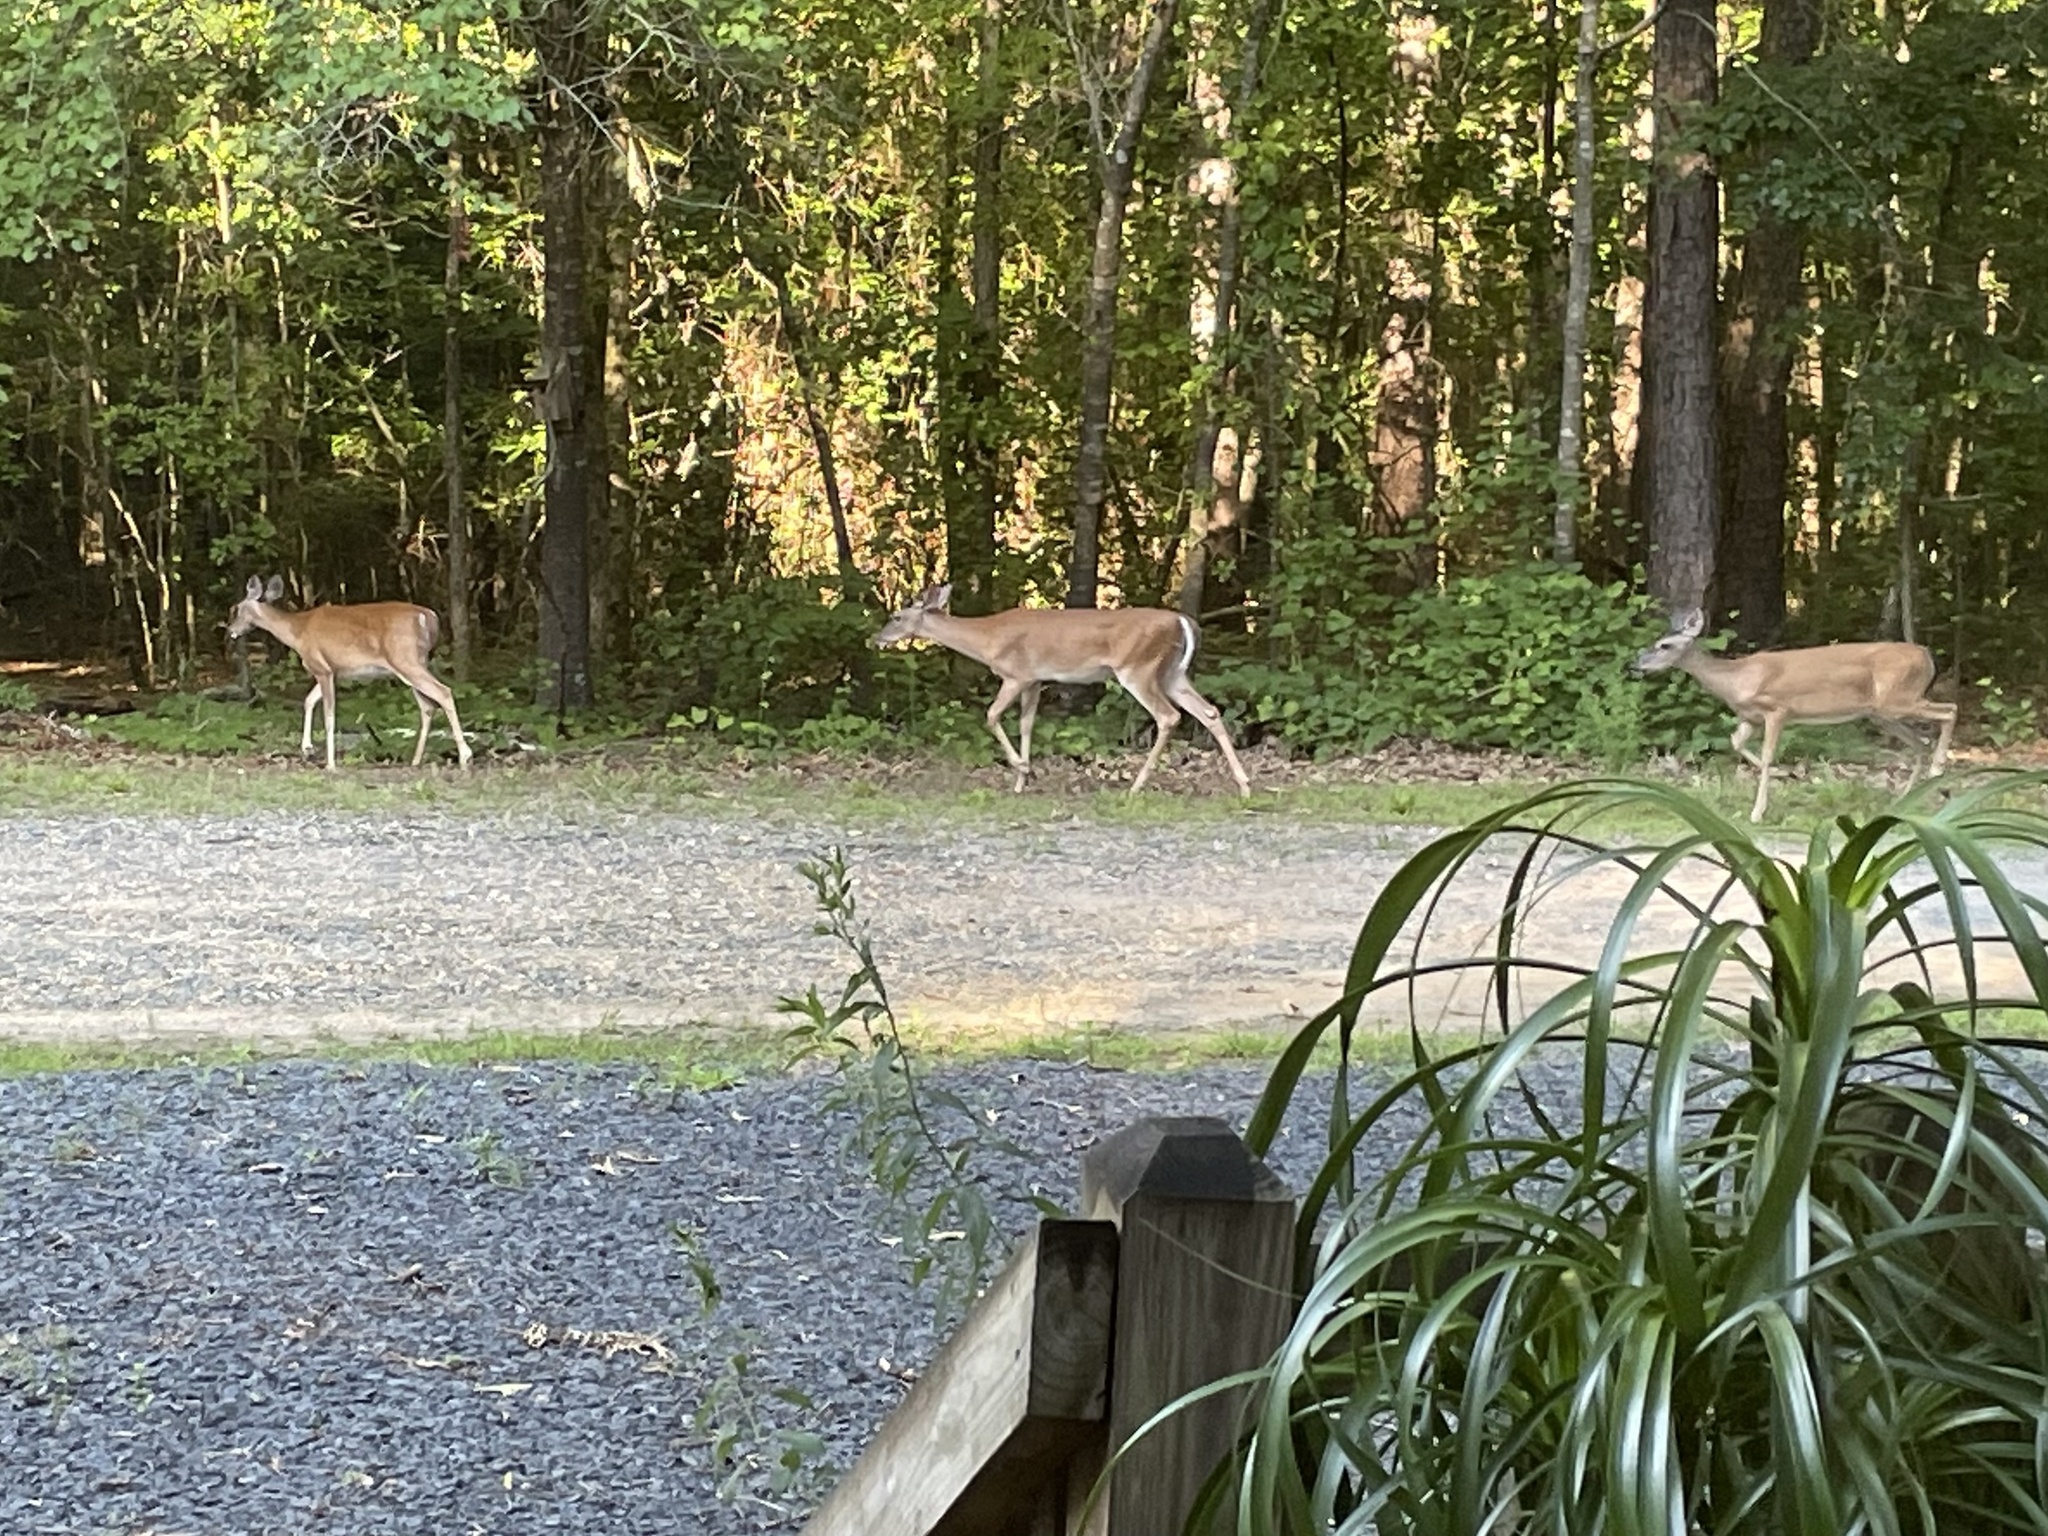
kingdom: Animalia
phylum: Chordata
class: Mammalia
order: Artiodactyla
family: Cervidae
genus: Odocoileus
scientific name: Odocoileus virginianus
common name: White-tailed deer
